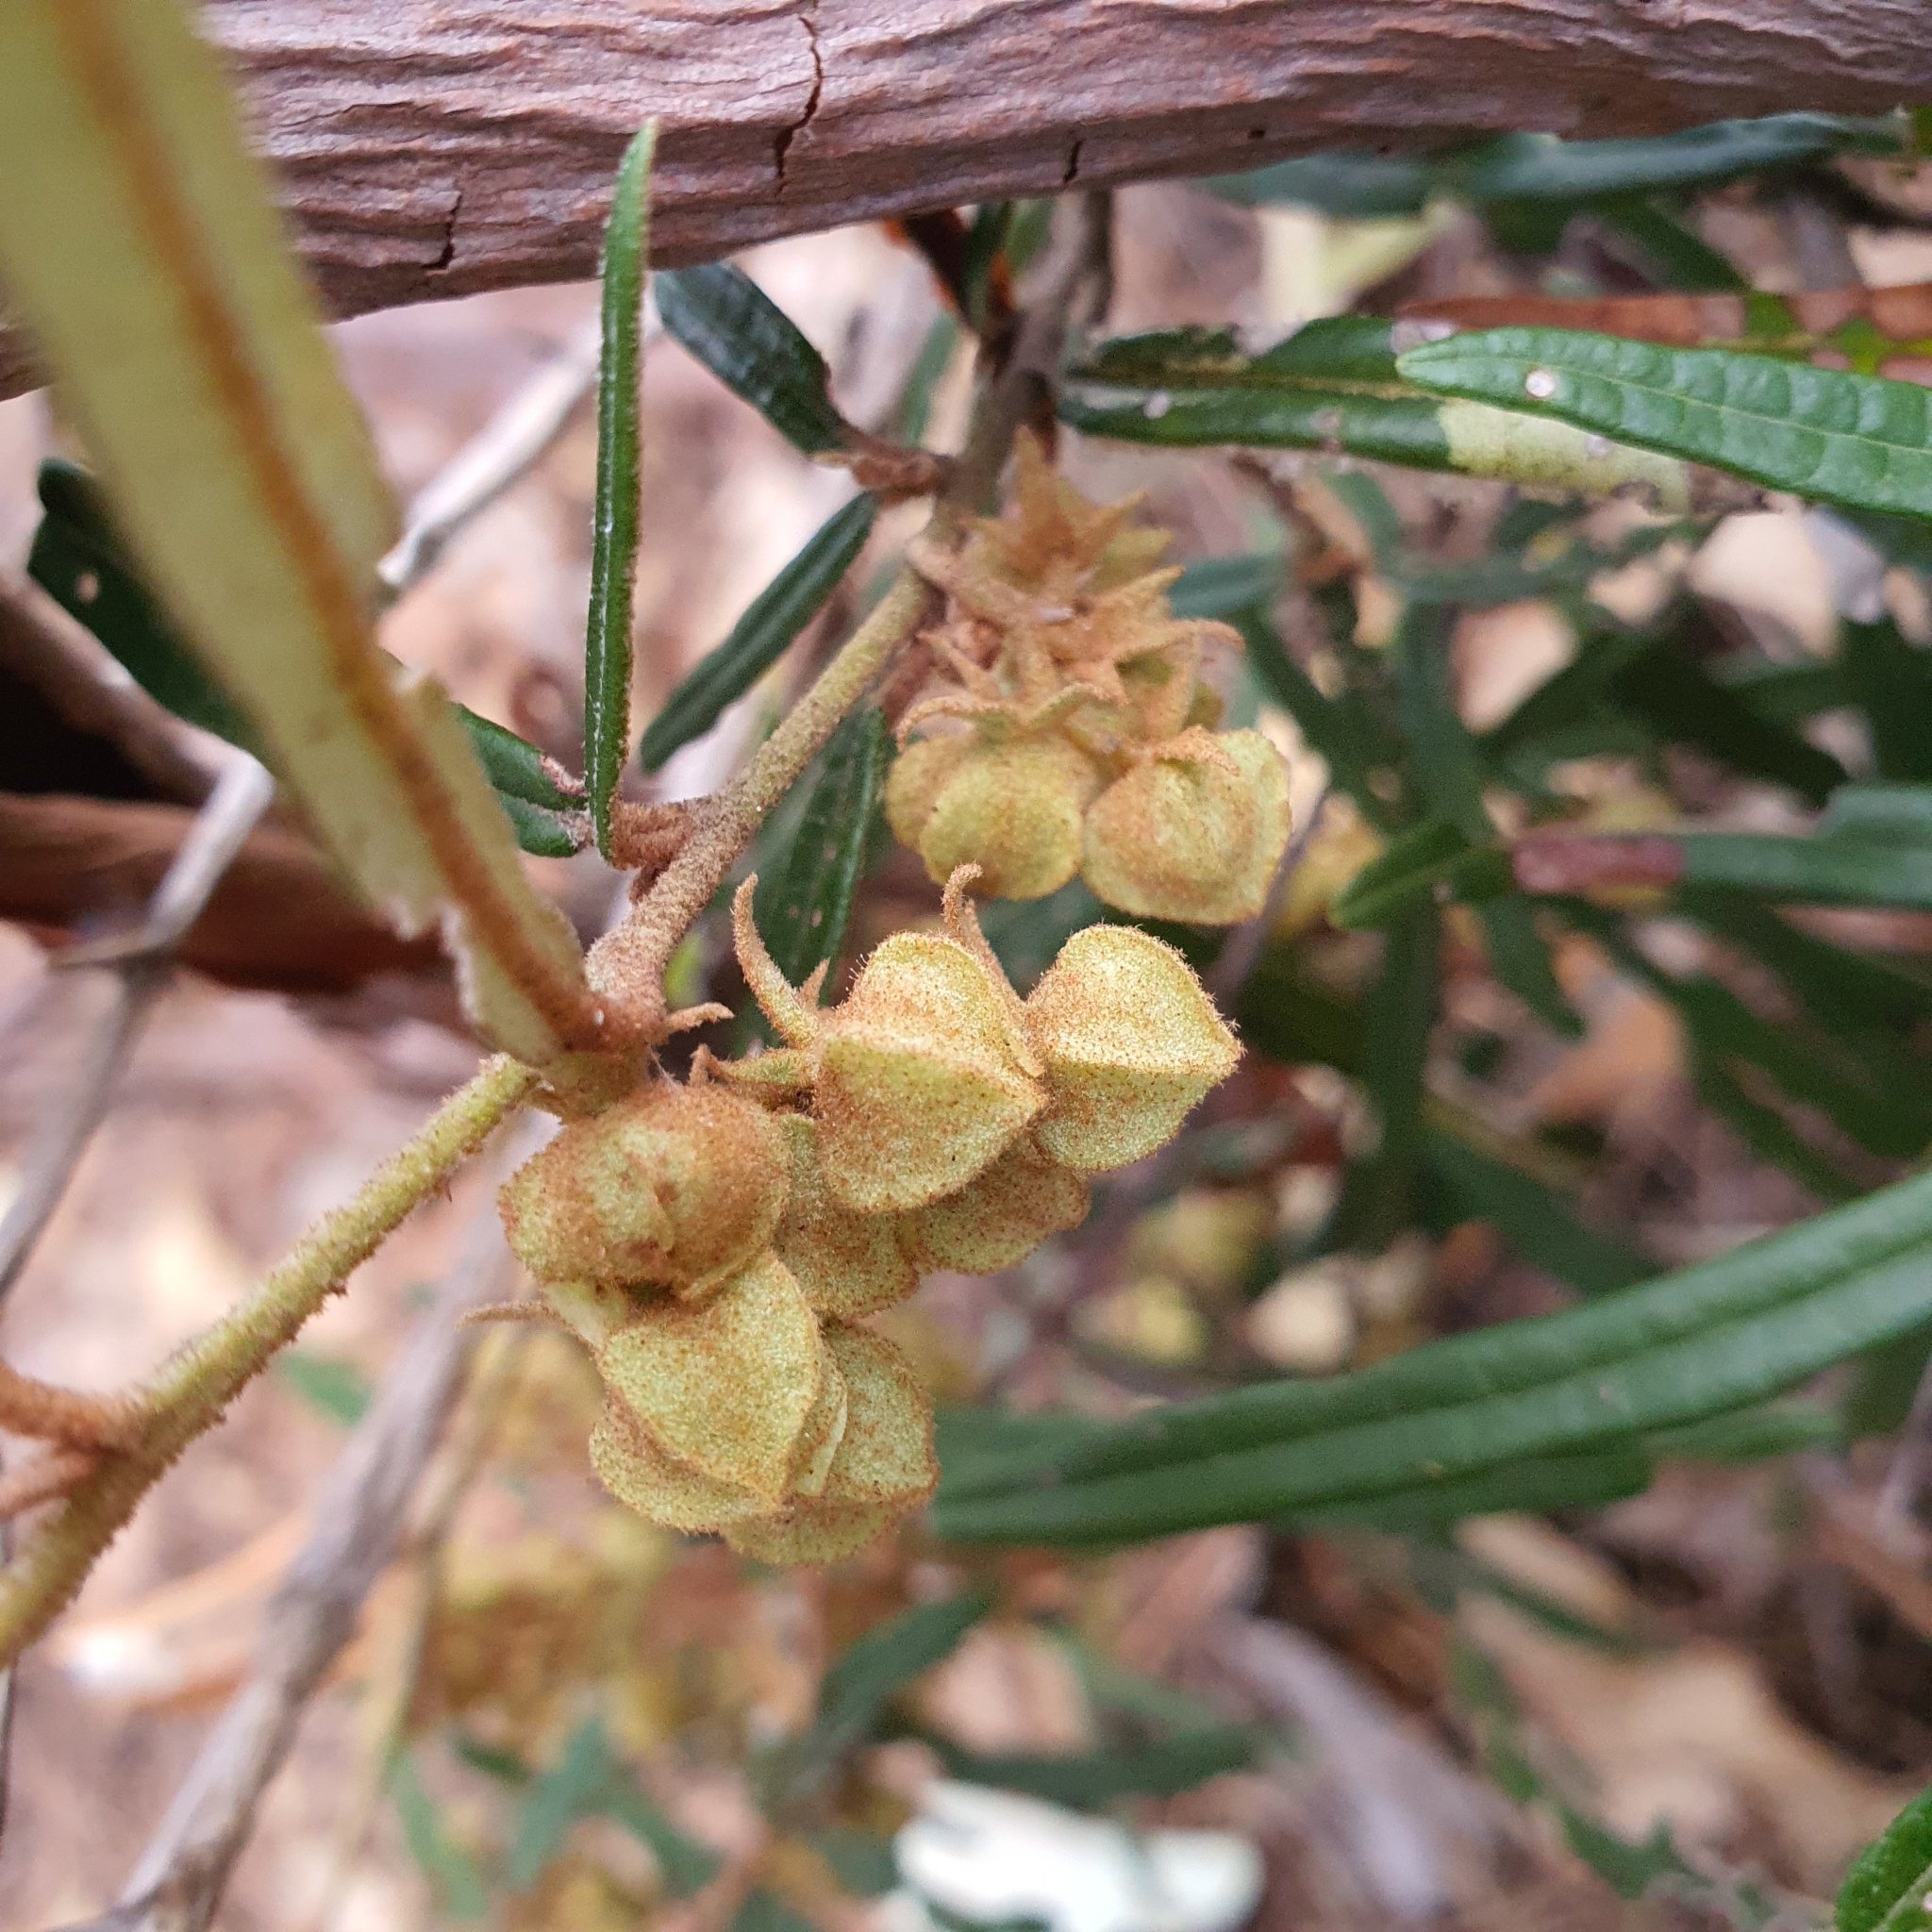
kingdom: Plantae
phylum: Tracheophyta
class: Magnoliopsida
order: Malvales
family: Malvaceae
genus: Lasiopetalum
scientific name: Lasiopetalum parviflorum
